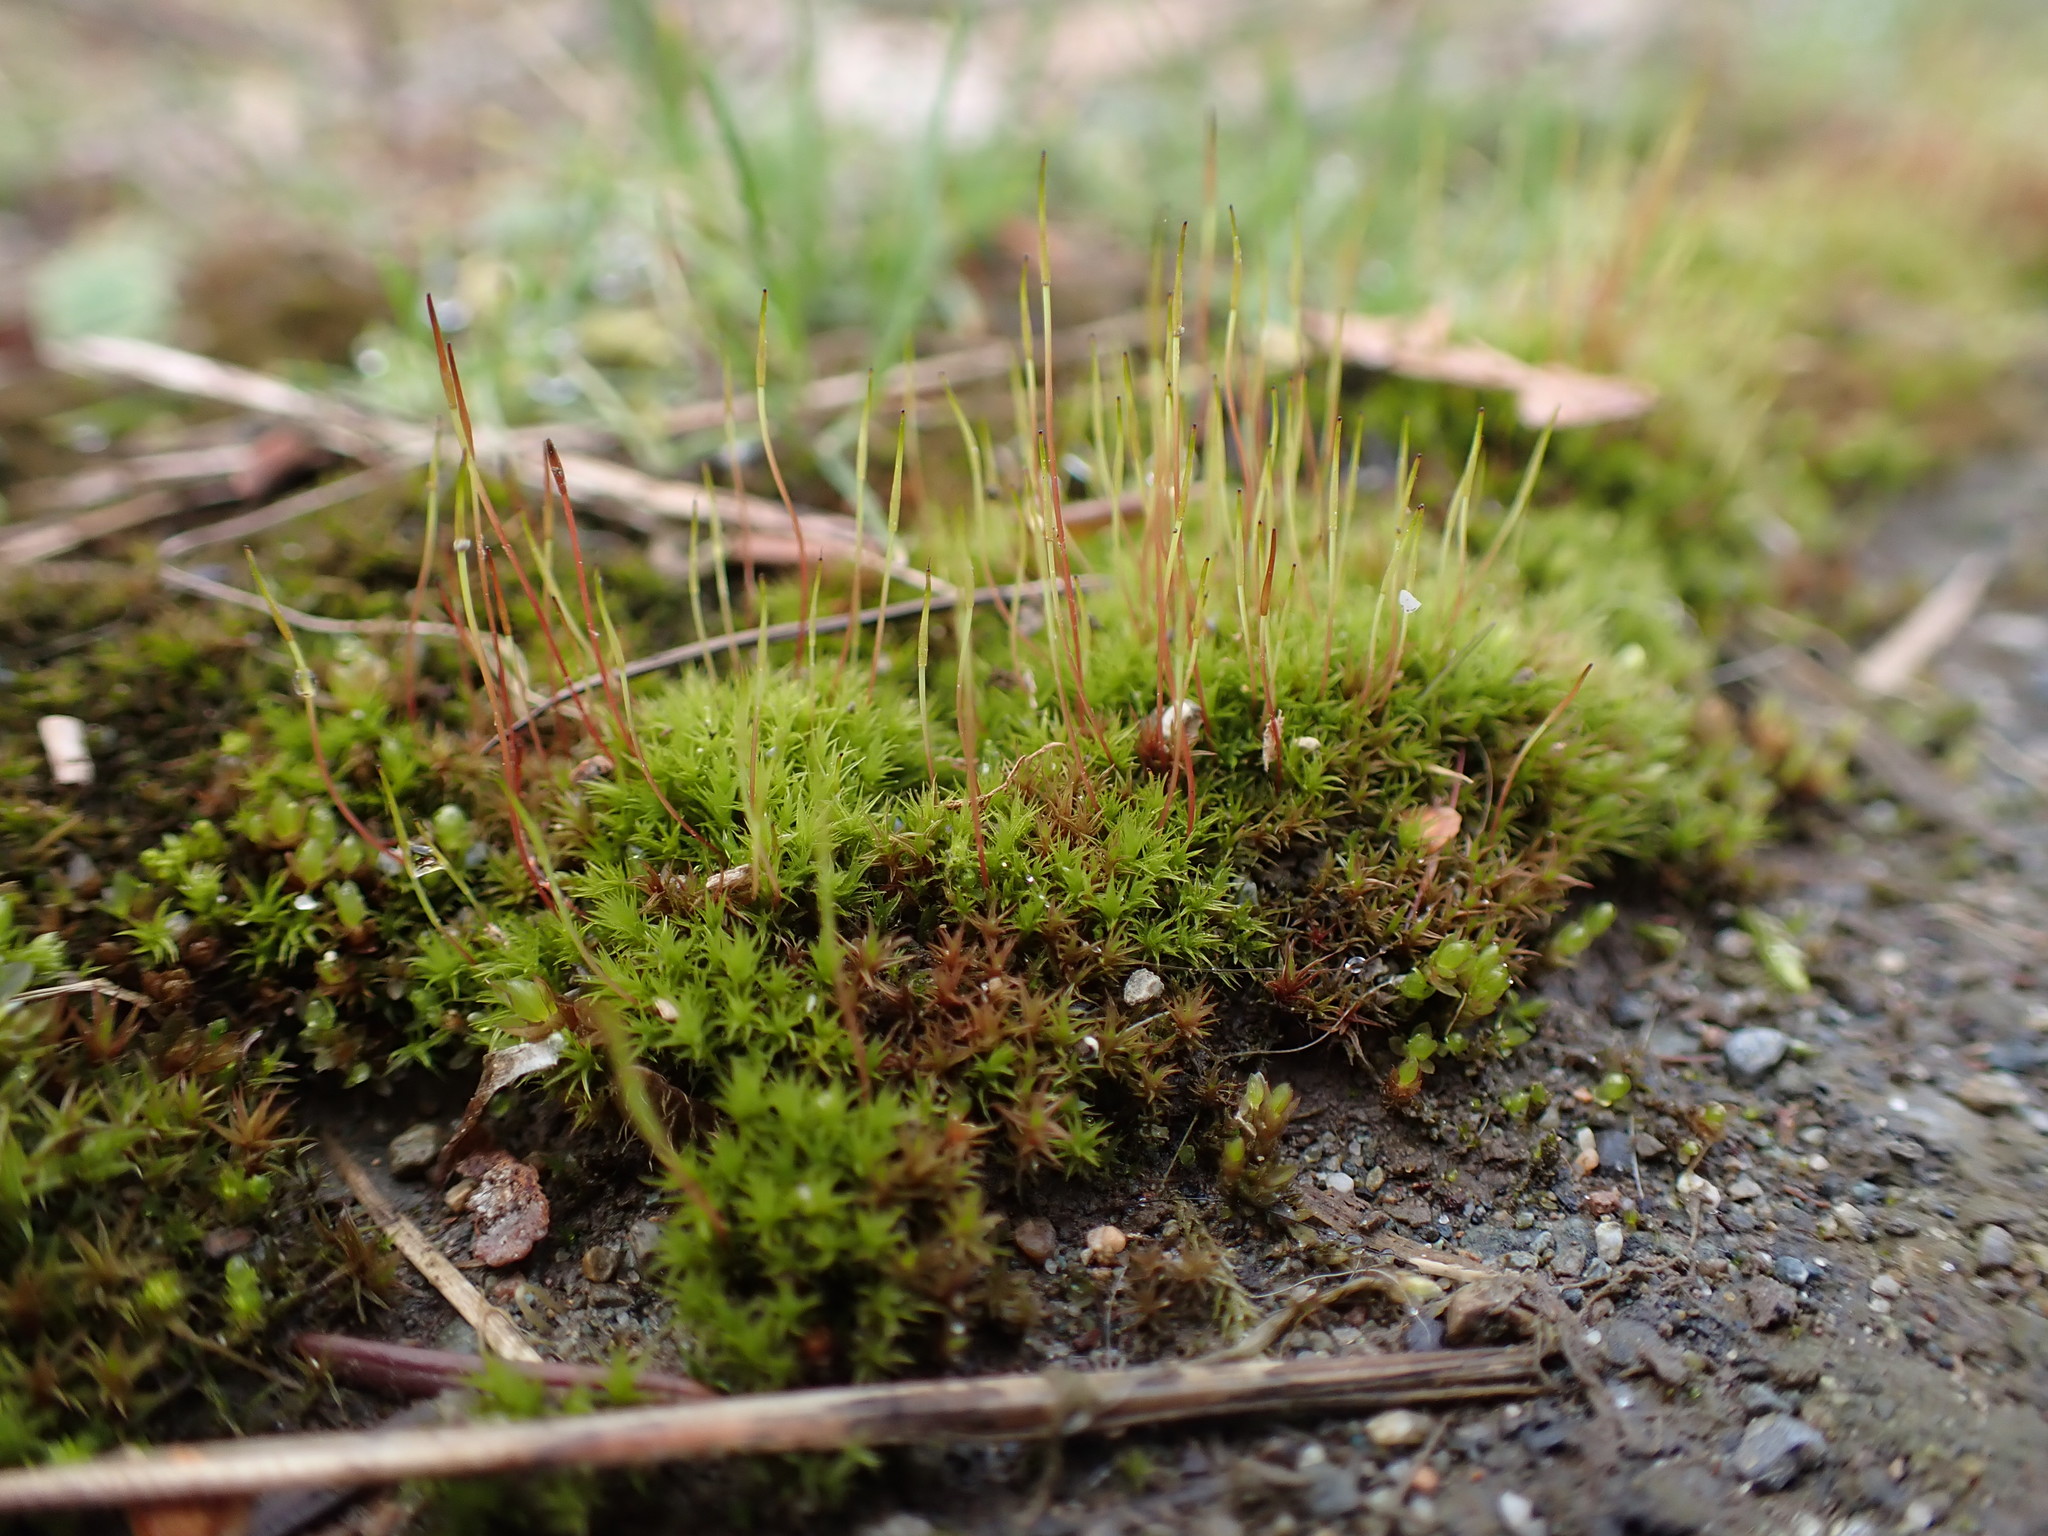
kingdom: Plantae
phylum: Bryophyta
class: Bryopsida
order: Dicranales
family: Ditrichaceae
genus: Ceratodon
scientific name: Ceratodon purpureus
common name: Redshank
